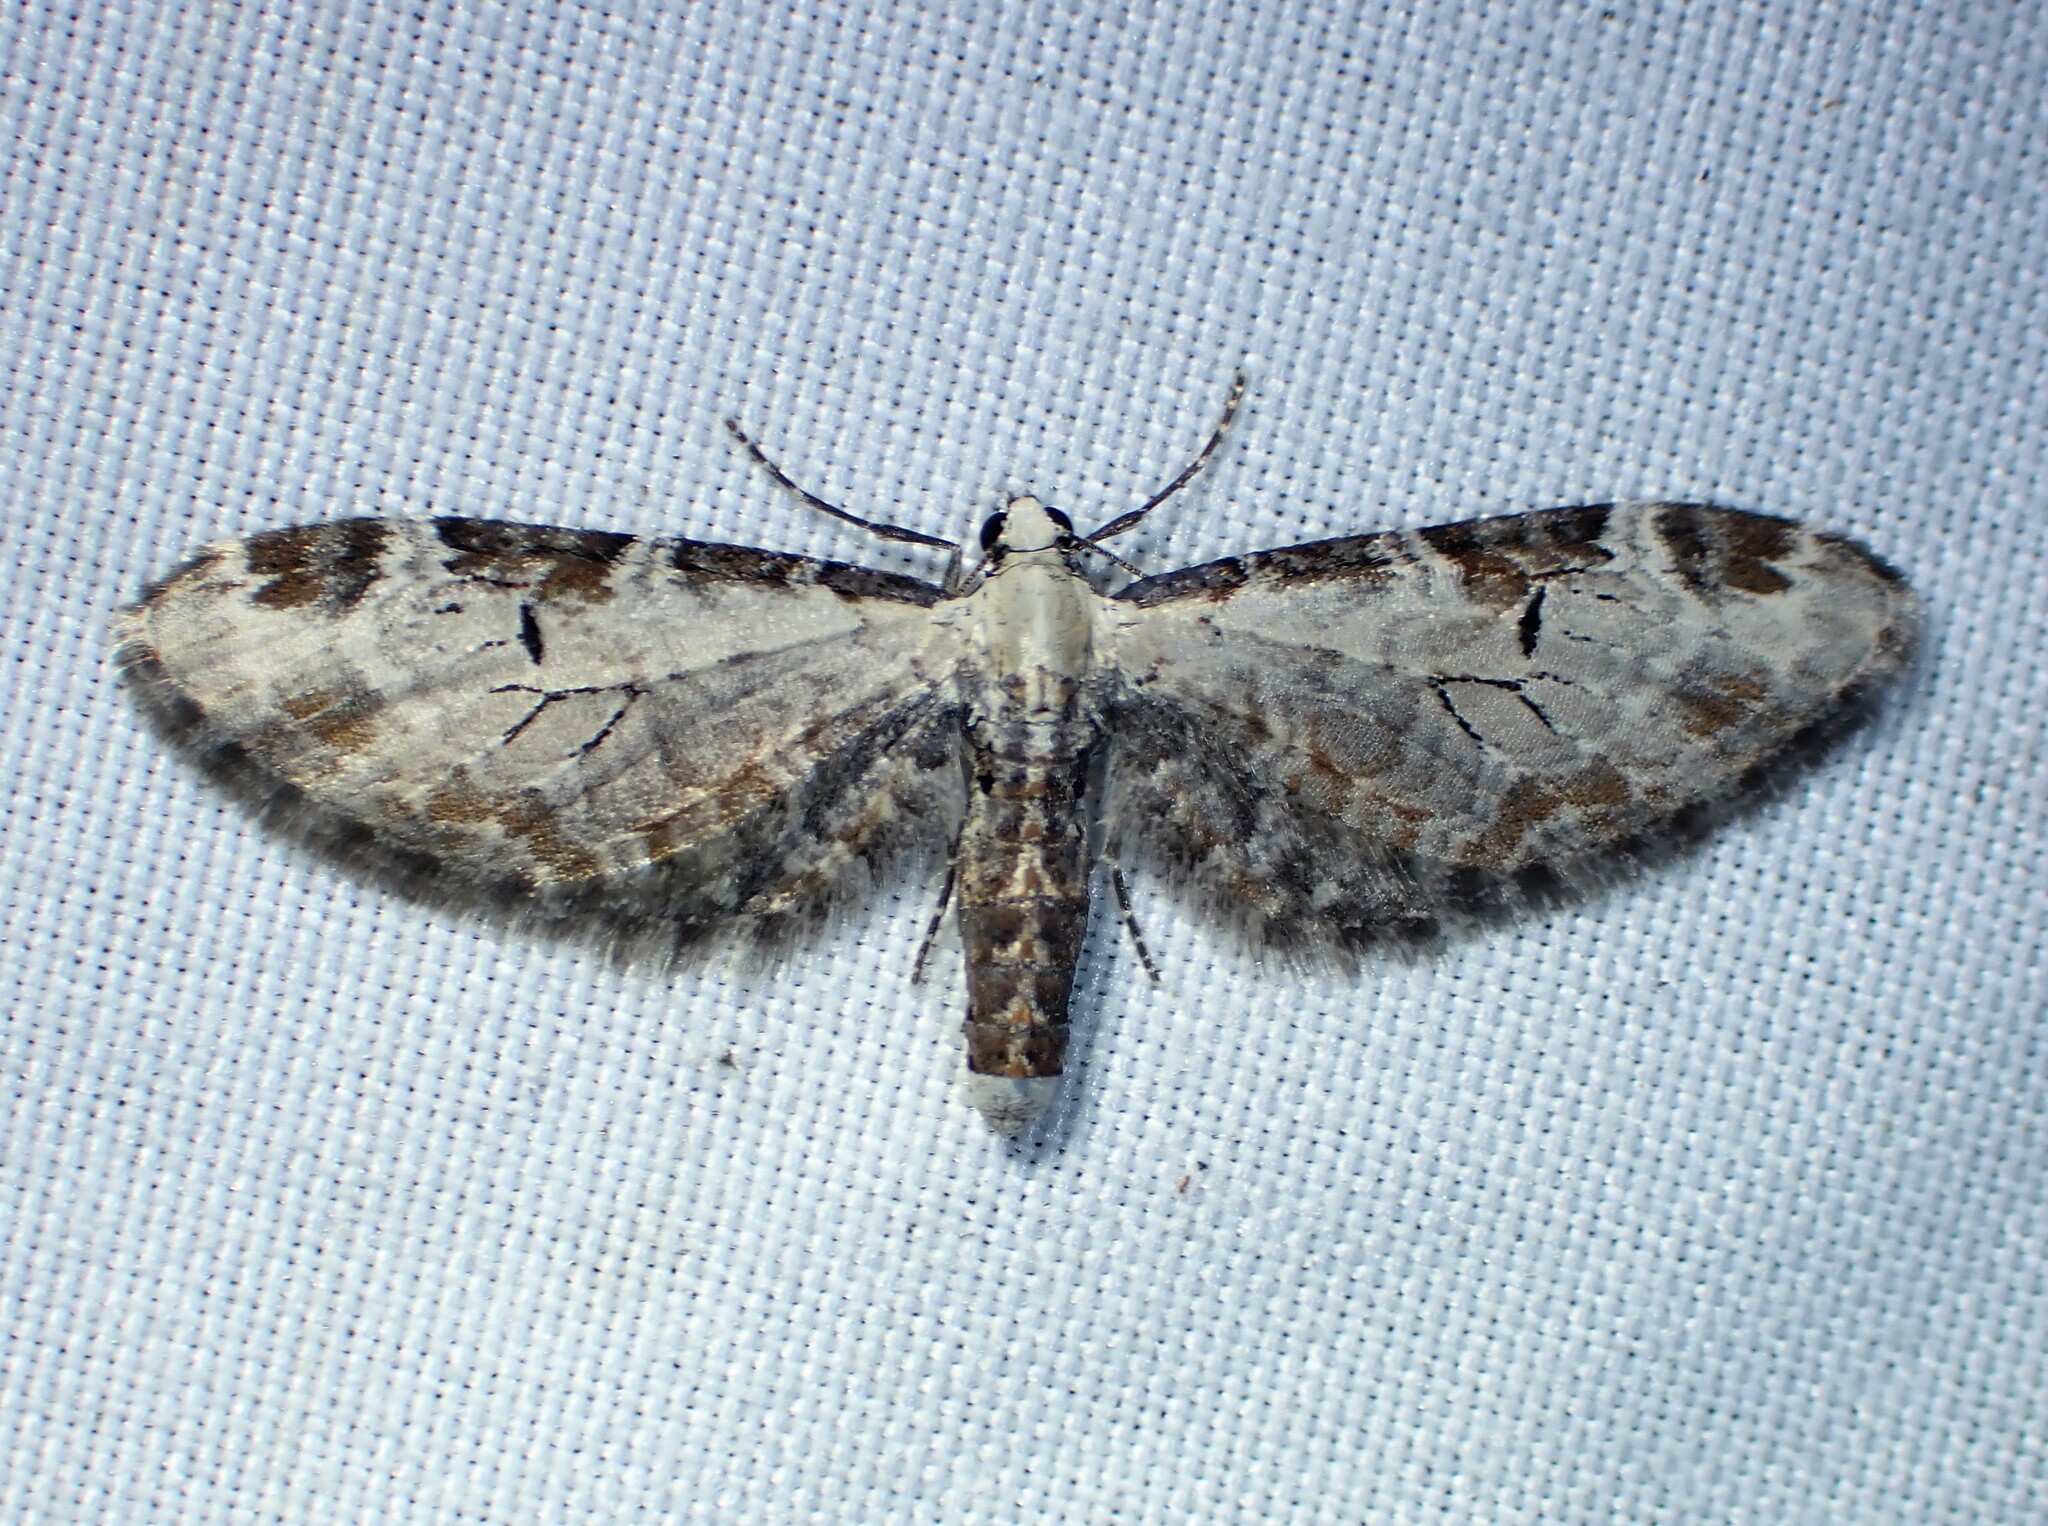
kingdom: Animalia
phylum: Arthropoda
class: Insecta
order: Lepidoptera
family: Geometridae
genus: Eupithecia
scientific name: Eupithecia ravocostaliata
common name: Great varigated pug
